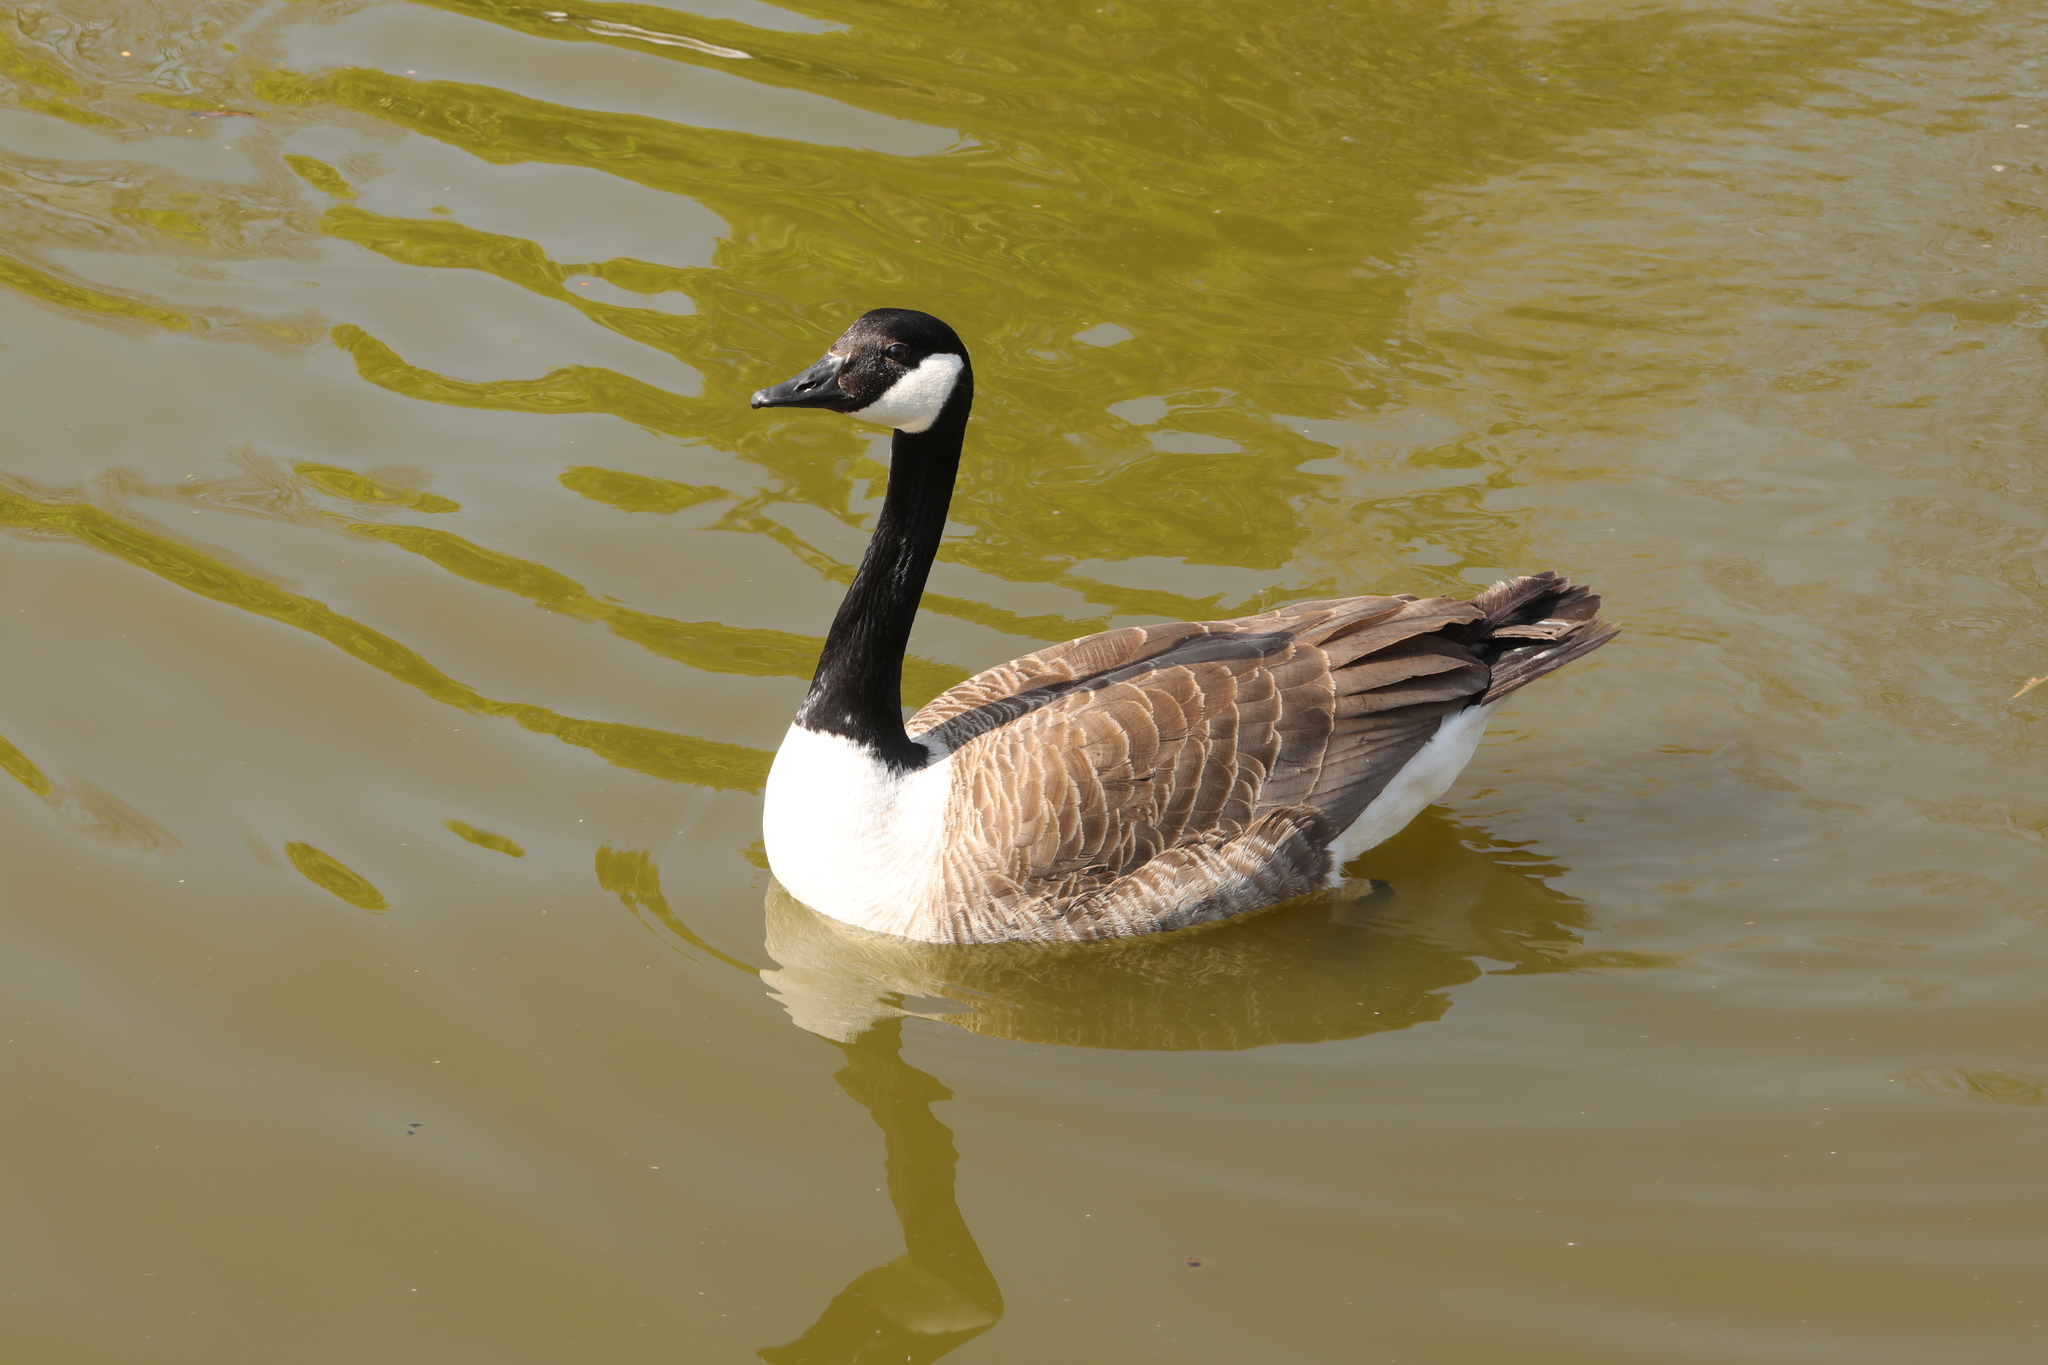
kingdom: Animalia
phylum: Chordata
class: Aves
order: Anseriformes
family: Anatidae
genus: Branta
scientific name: Branta canadensis
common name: Canada goose
